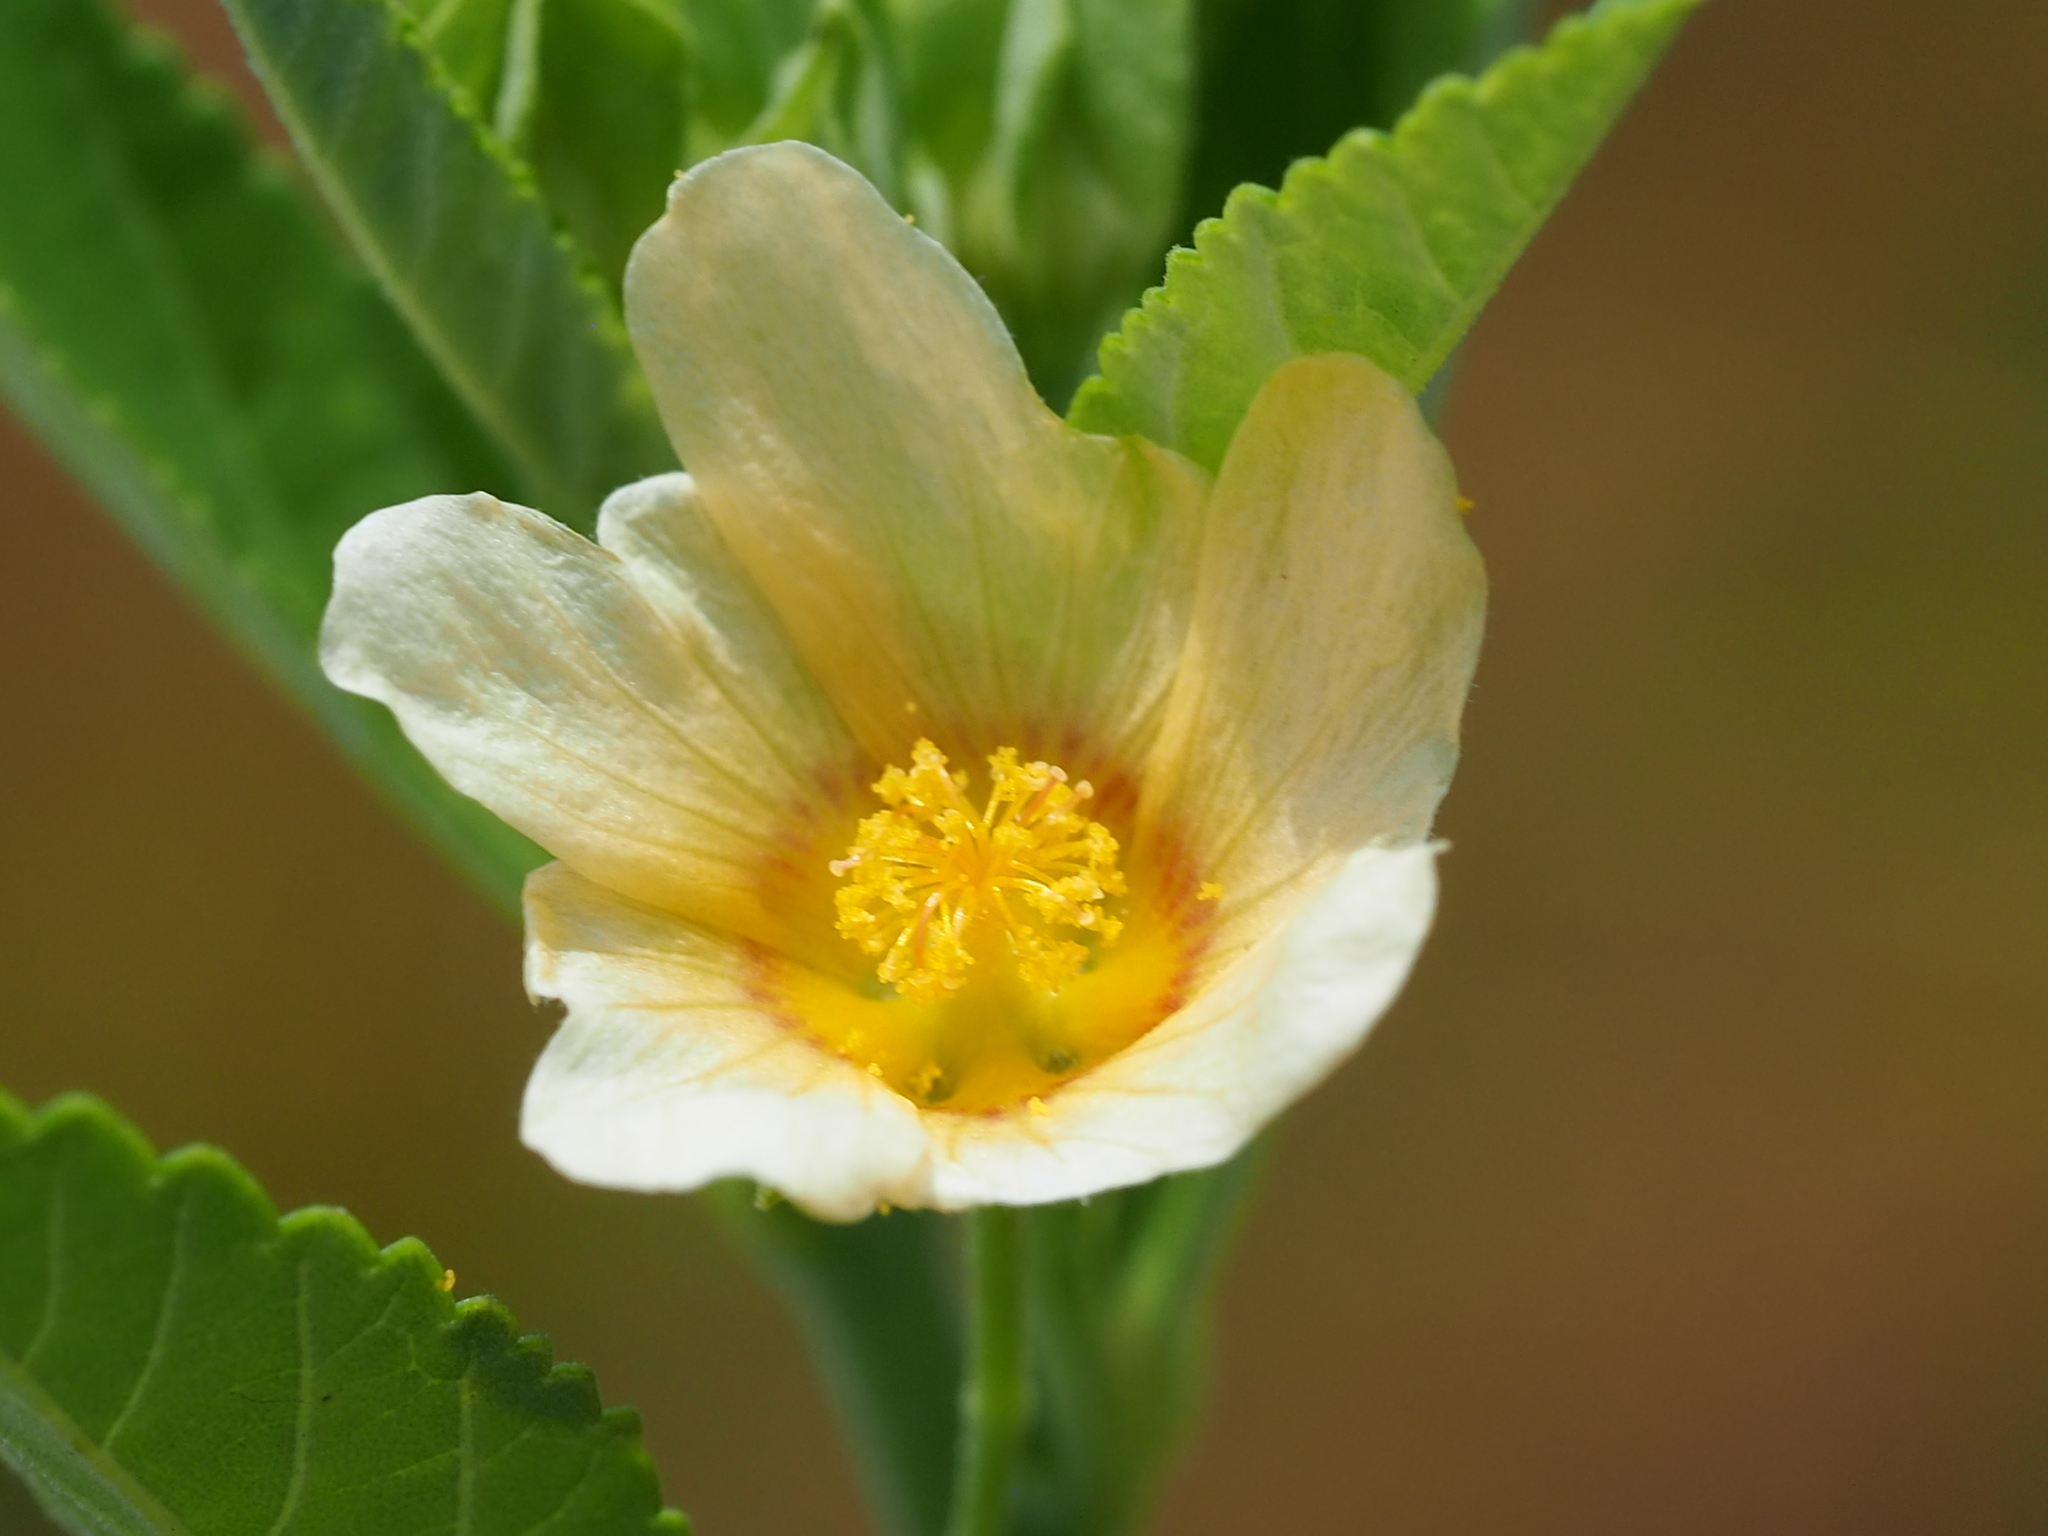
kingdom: Plantae
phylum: Tracheophyta
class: Magnoliopsida
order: Malvales
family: Malvaceae
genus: Sida
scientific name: Sida rhombifolia
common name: Queensland-hemp
